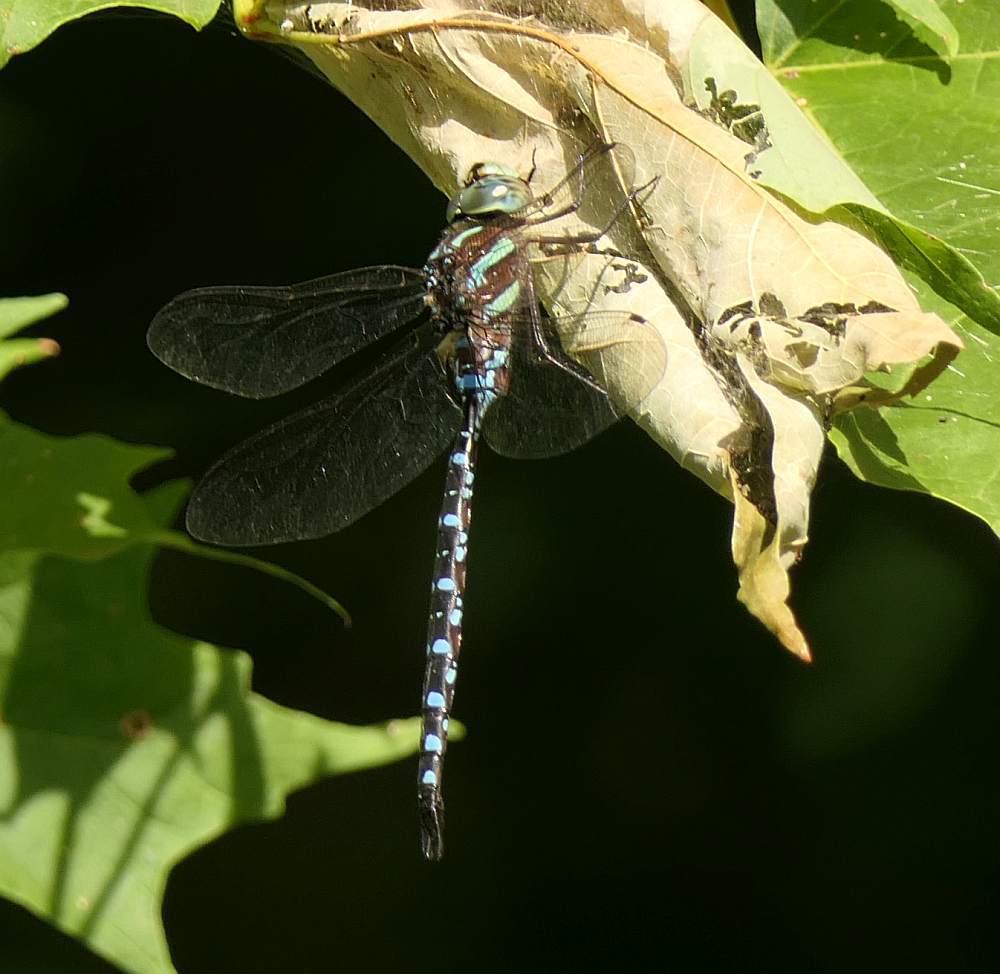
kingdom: Animalia
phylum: Arthropoda
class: Insecta
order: Odonata
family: Aeshnidae
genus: Aeshna
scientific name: Aeshna tuberculifera
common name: Aeschne à tubercules
